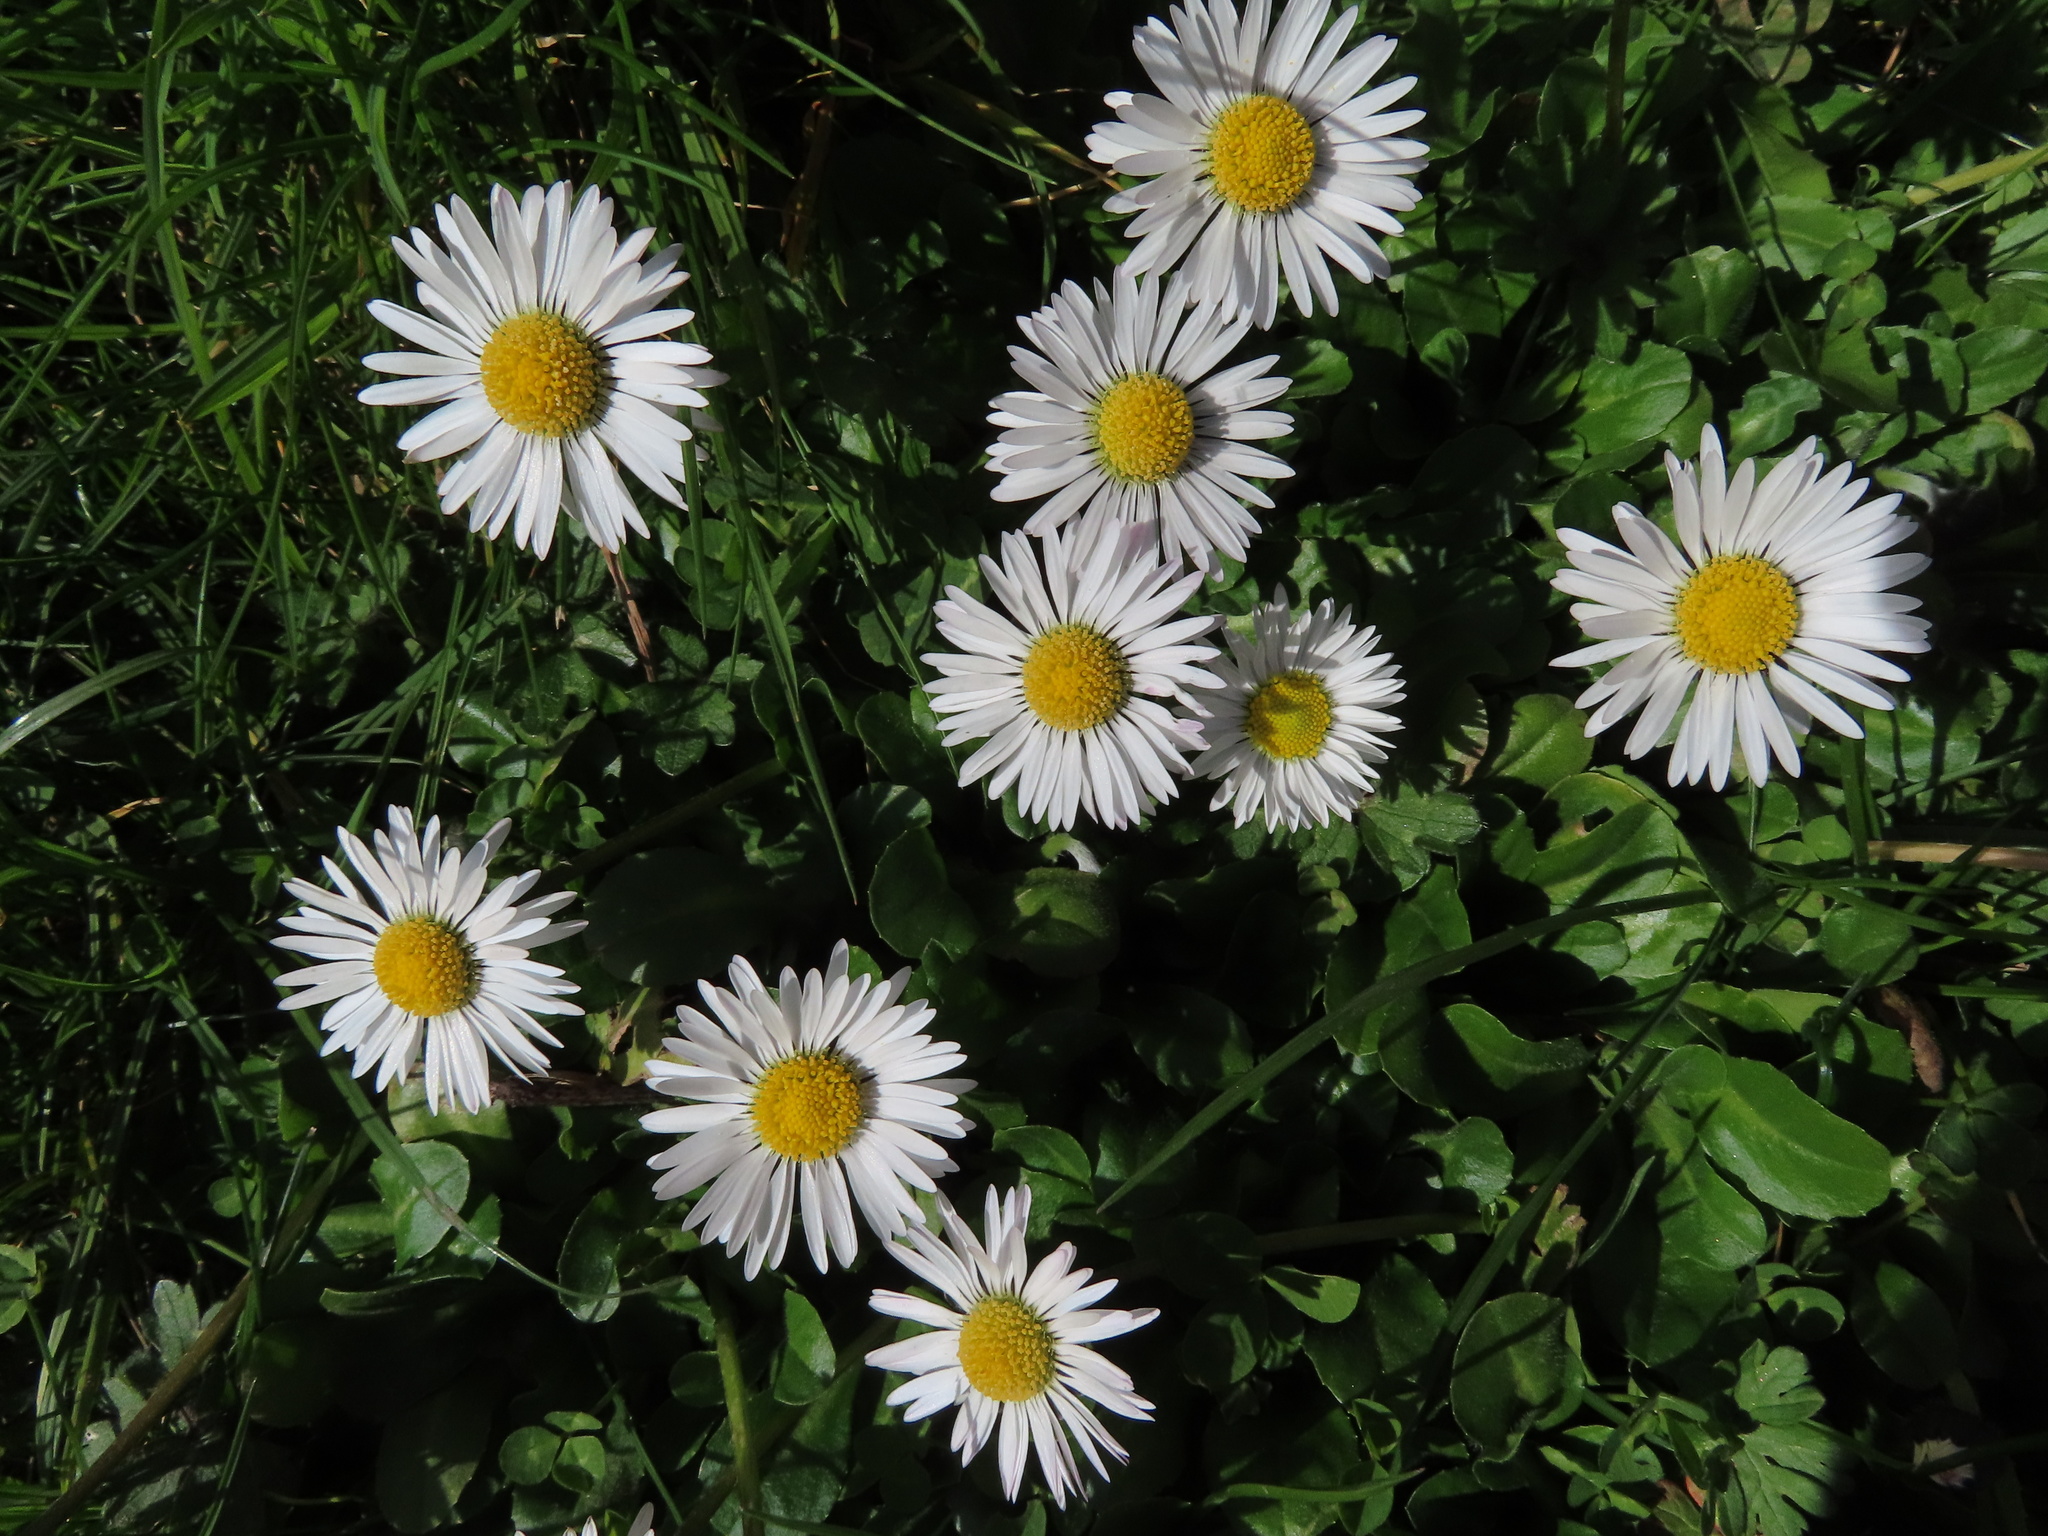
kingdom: Plantae
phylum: Tracheophyta
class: Magnoliopsida
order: Asterales
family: Asteraceae
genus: Bellis
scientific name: Bellis perennis
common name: Lawndaisy
